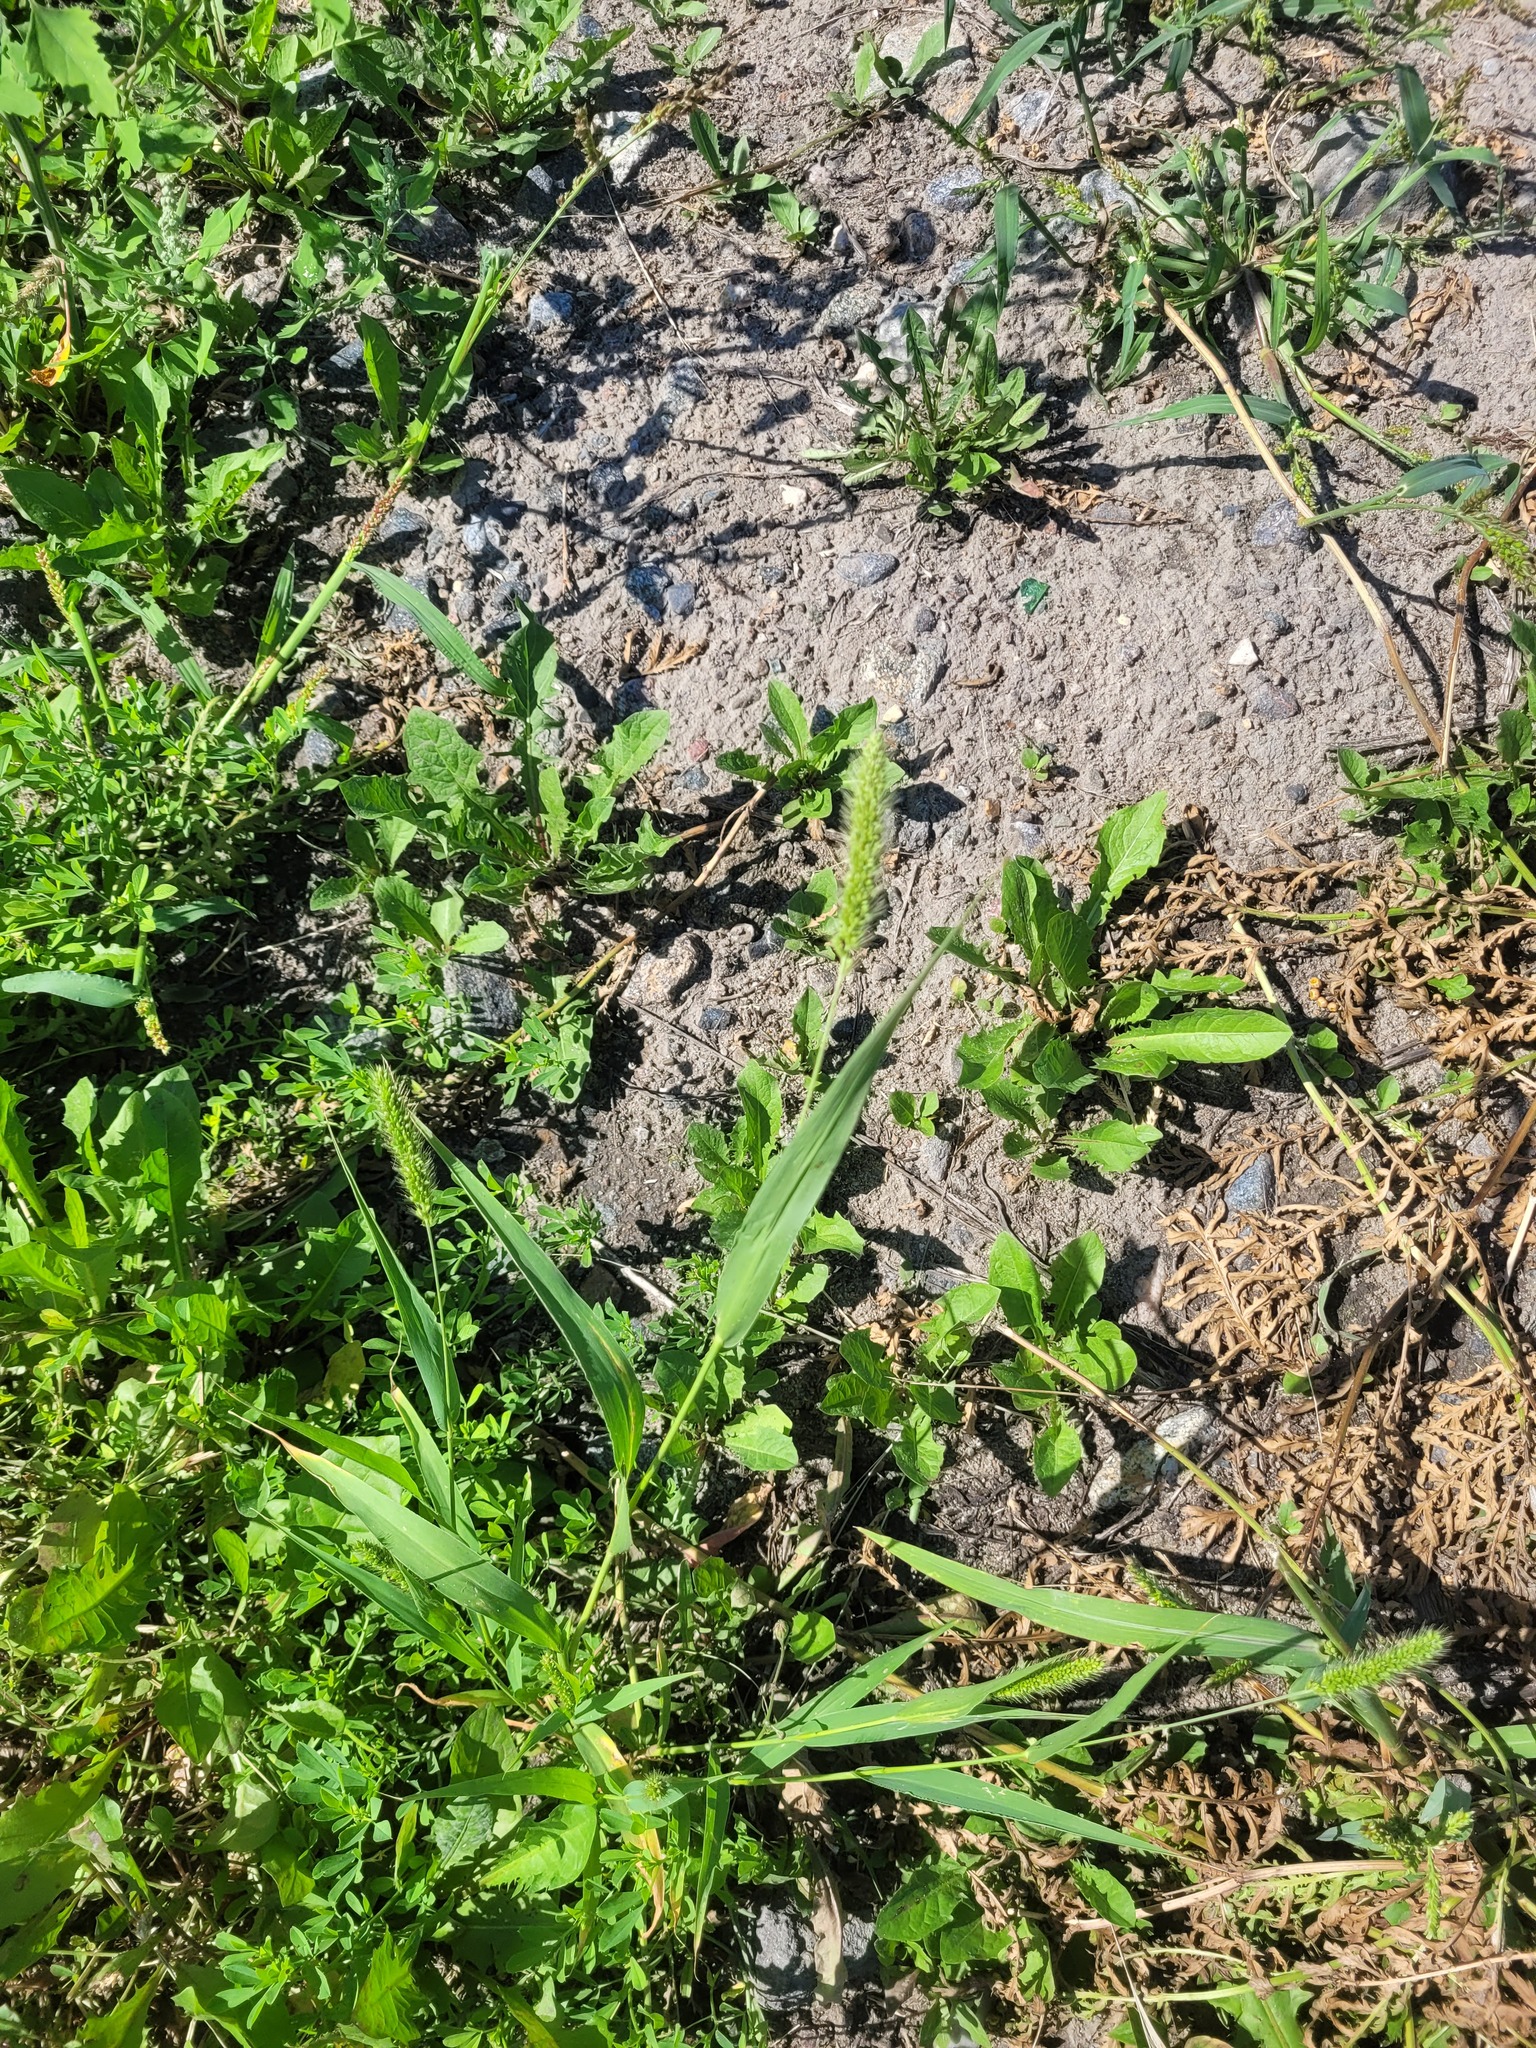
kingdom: Plantae
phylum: Tracheophyta
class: Liliopsida
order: Poales
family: Poaceae
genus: Setaria
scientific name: Setaria viridis
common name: Green bristlegrass
